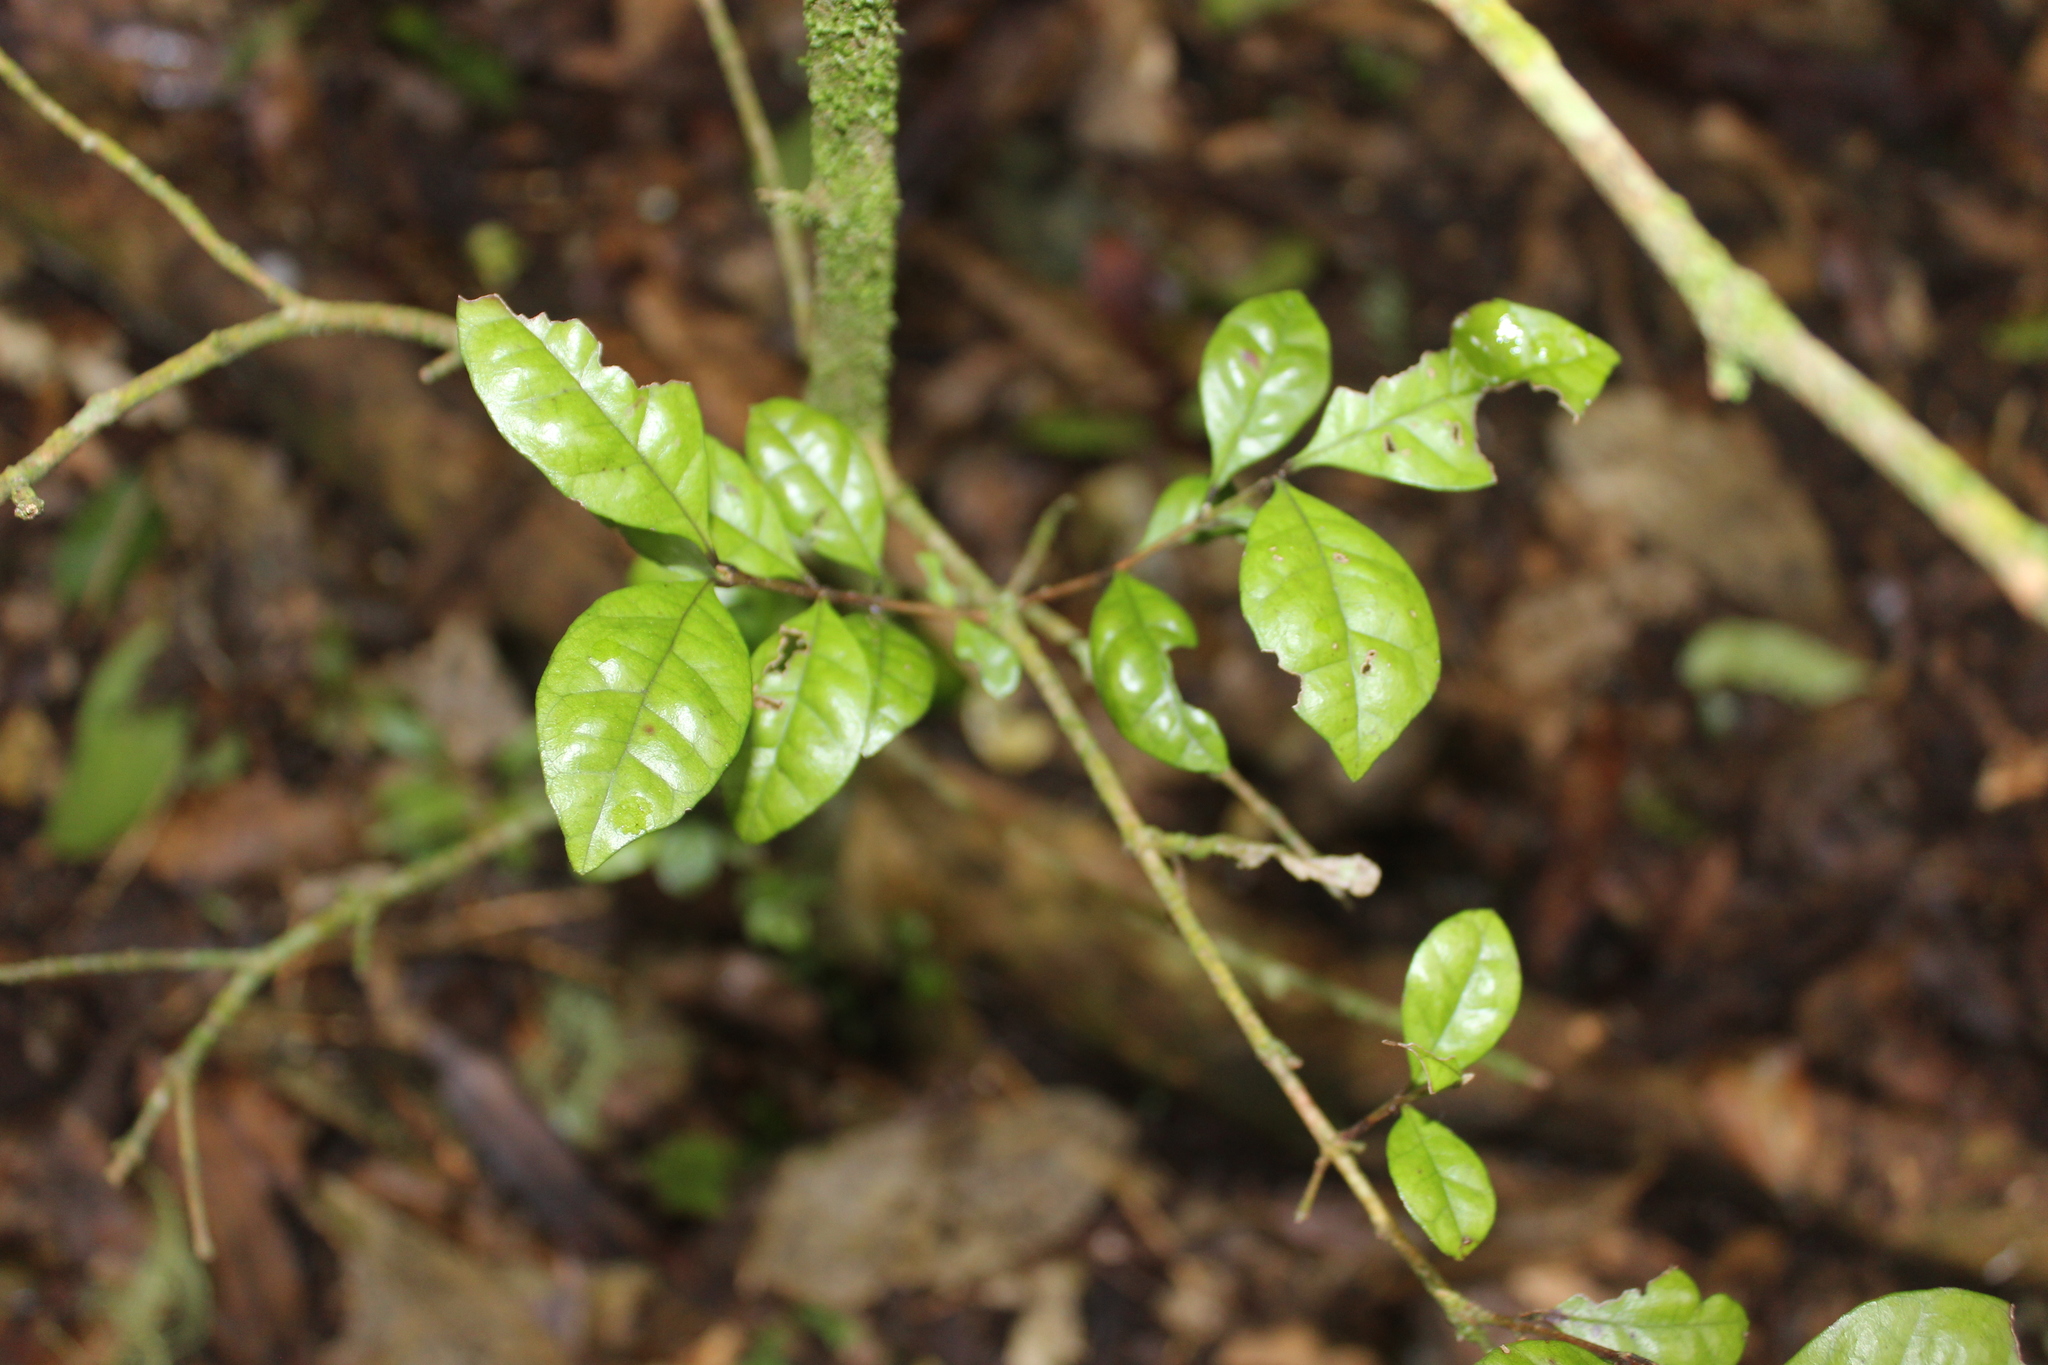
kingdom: Plantae
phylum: Tracheophyta
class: Magnoliopsida
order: Myrtales
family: Myrtaceae
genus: Lophomyrtus
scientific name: Lophomyrtus bullata
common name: Rama rama
